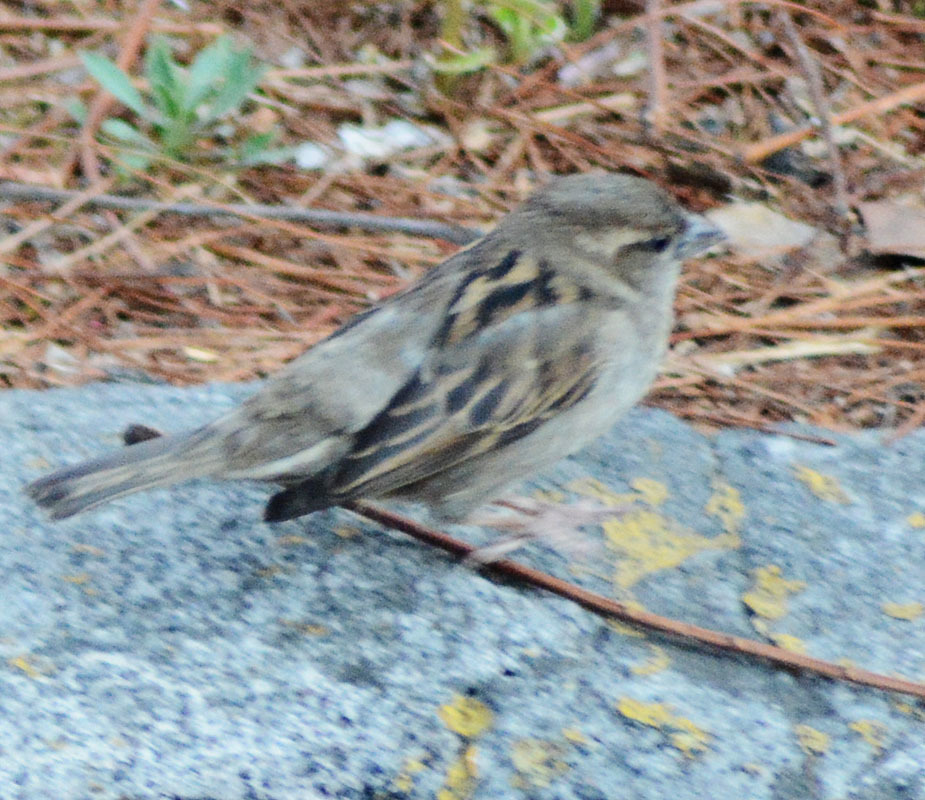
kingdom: Animalia
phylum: Chordata
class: Aves
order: Passeriformes
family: Passeridae
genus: Passer
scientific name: Passer domesticus
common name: House sparrow
